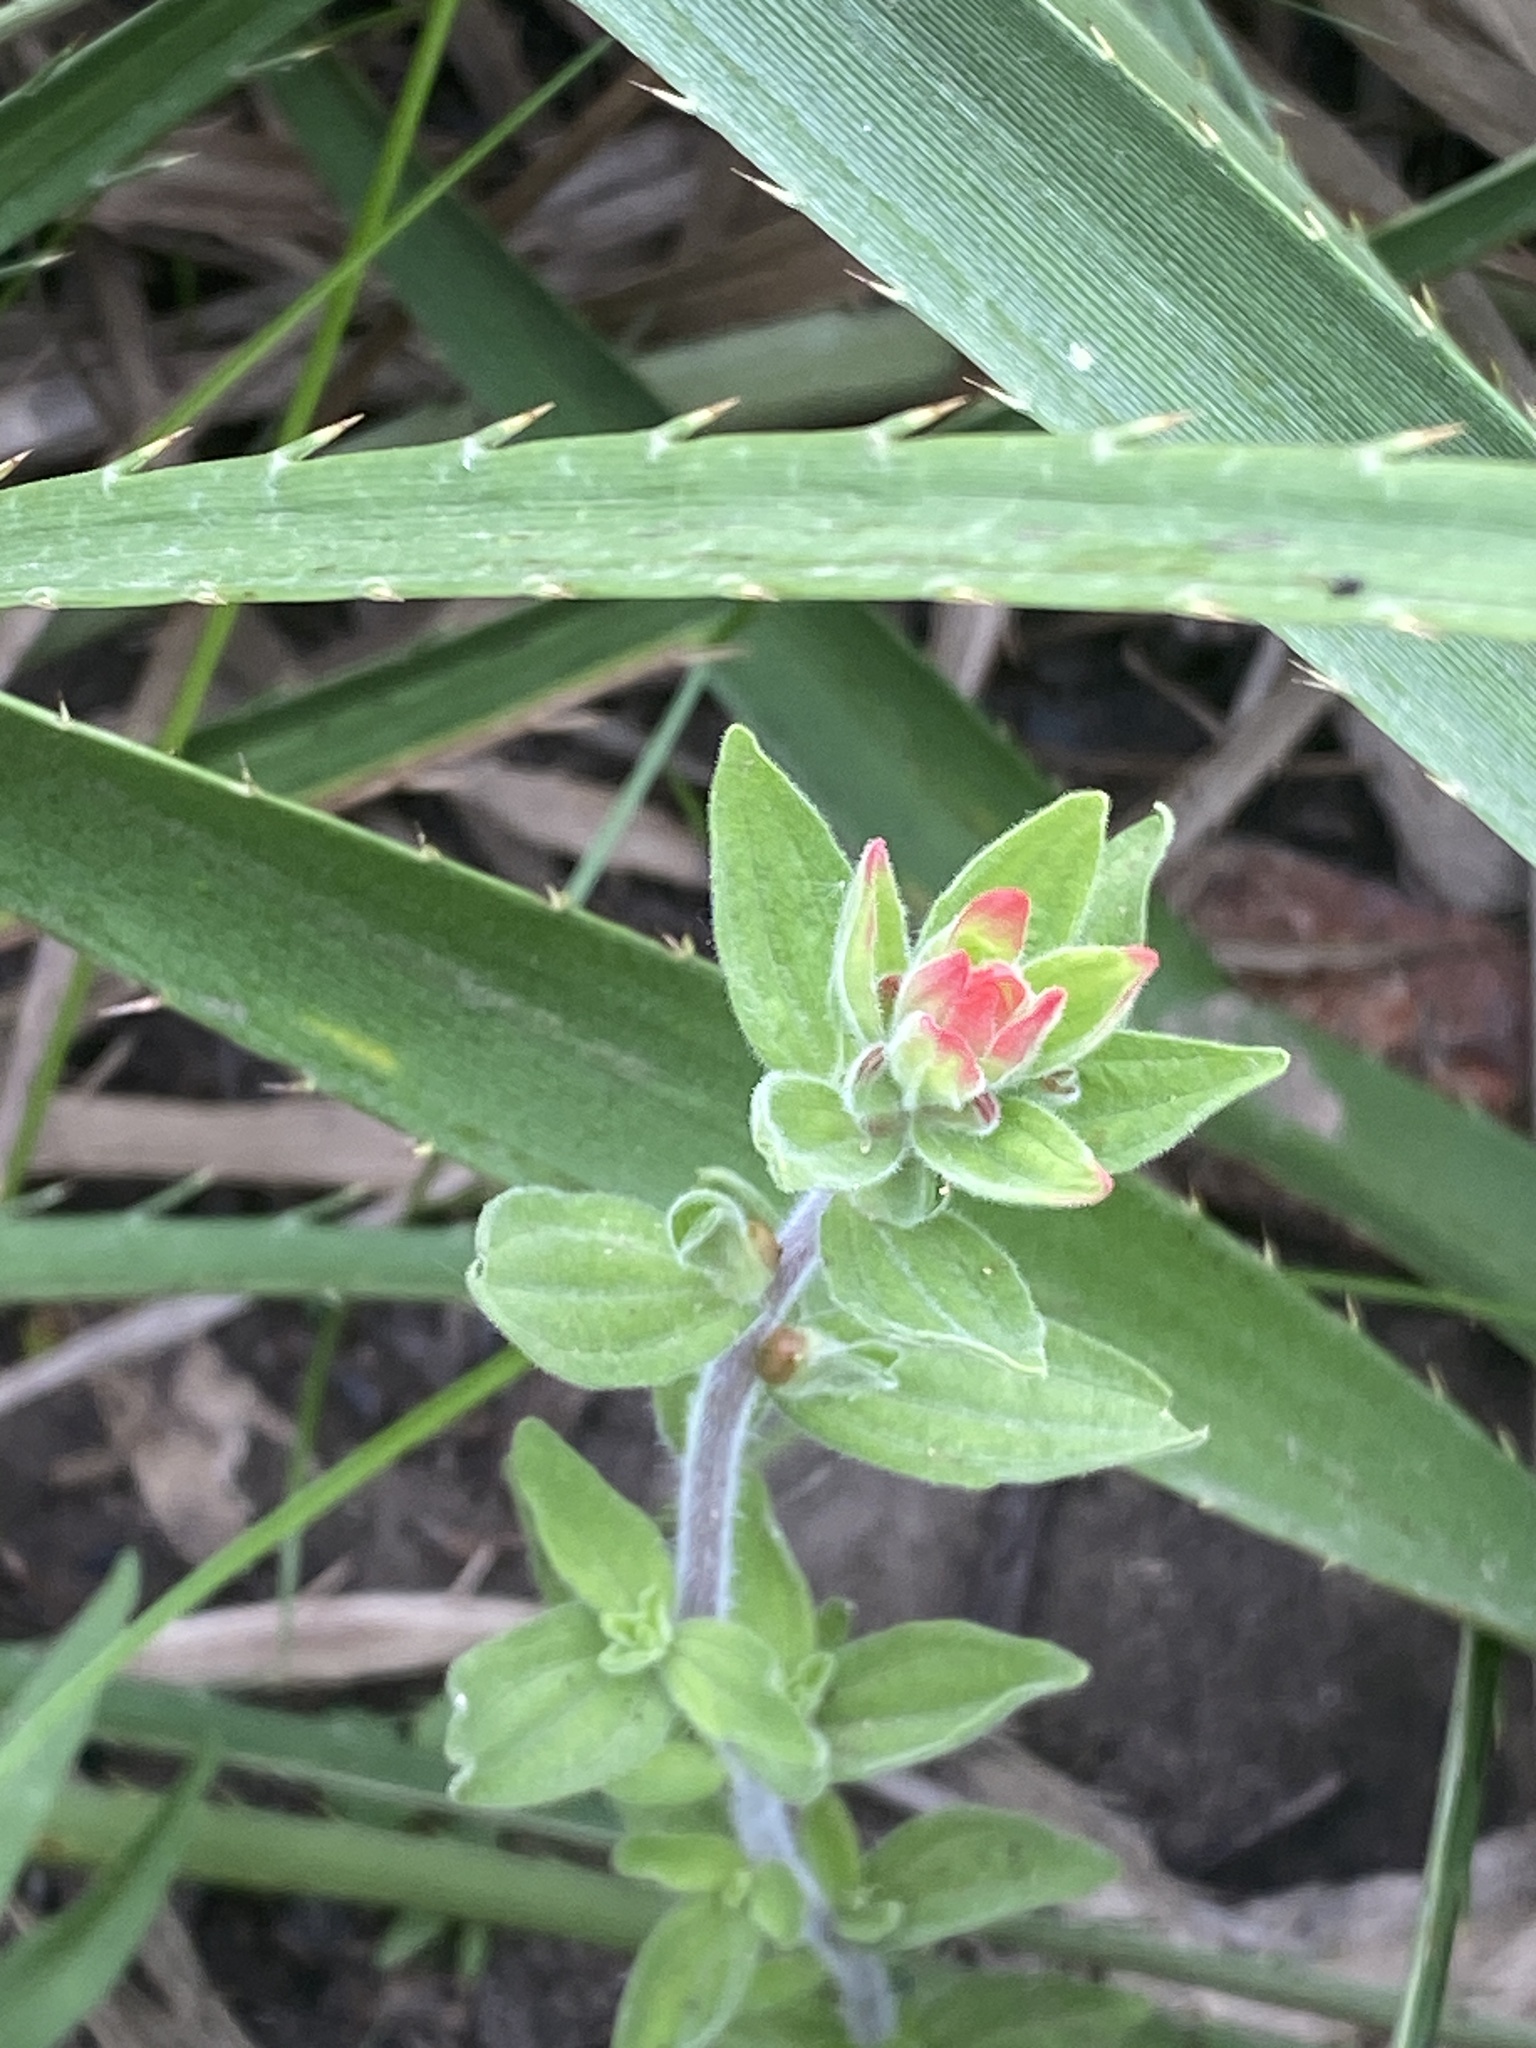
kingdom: Plantae
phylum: Tracheophyta
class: Magnoliopsida
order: Lamiales
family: Orobanchaceae
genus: Castilleja
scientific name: Castilleja arvensis
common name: Indian paintbrush
